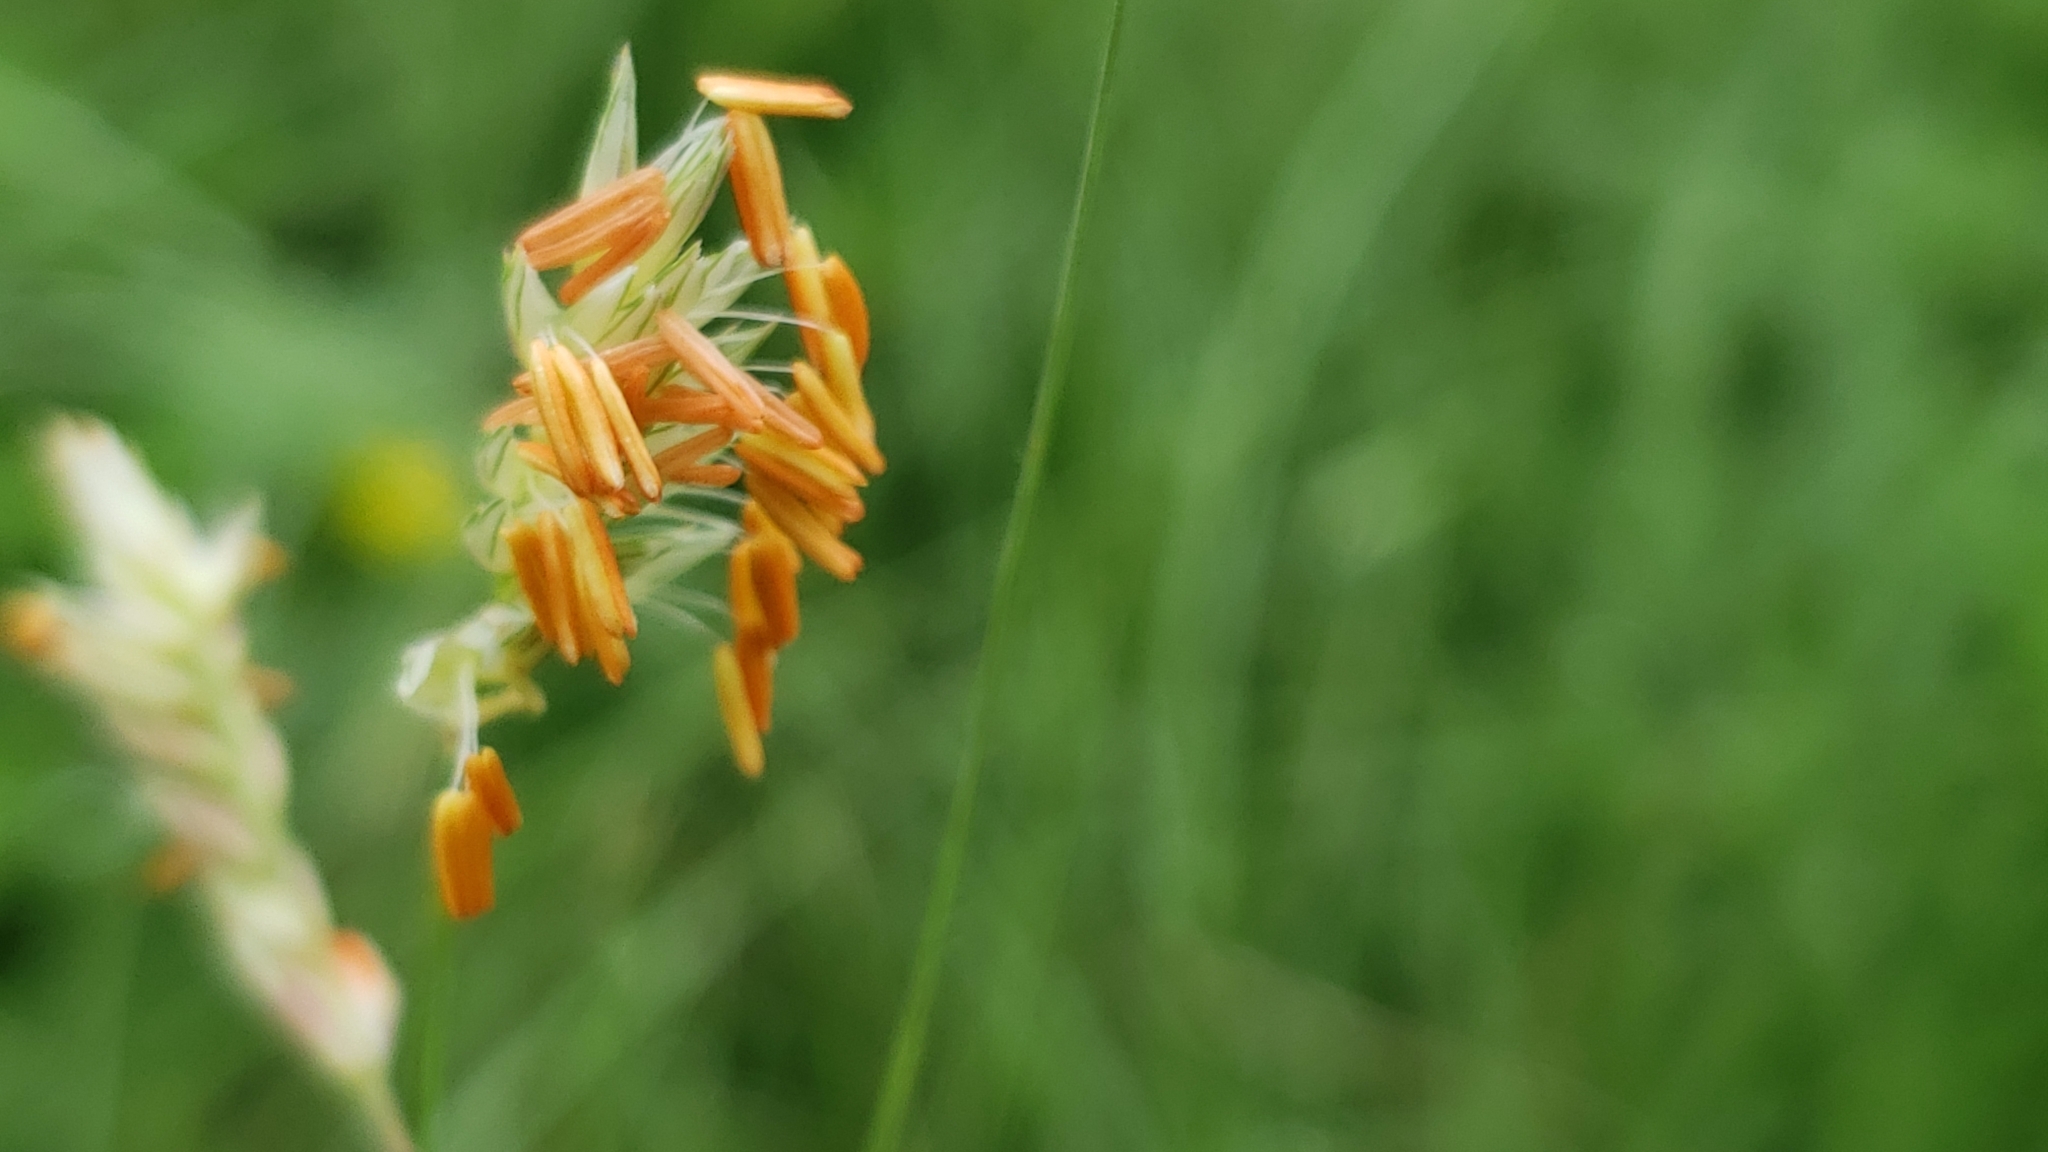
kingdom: Plantae
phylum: Tracheophyta
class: Liliopsida
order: Poales
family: Poaceae
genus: Bouteloua
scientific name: Bouteloua dactyloides
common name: Buffalo grass
